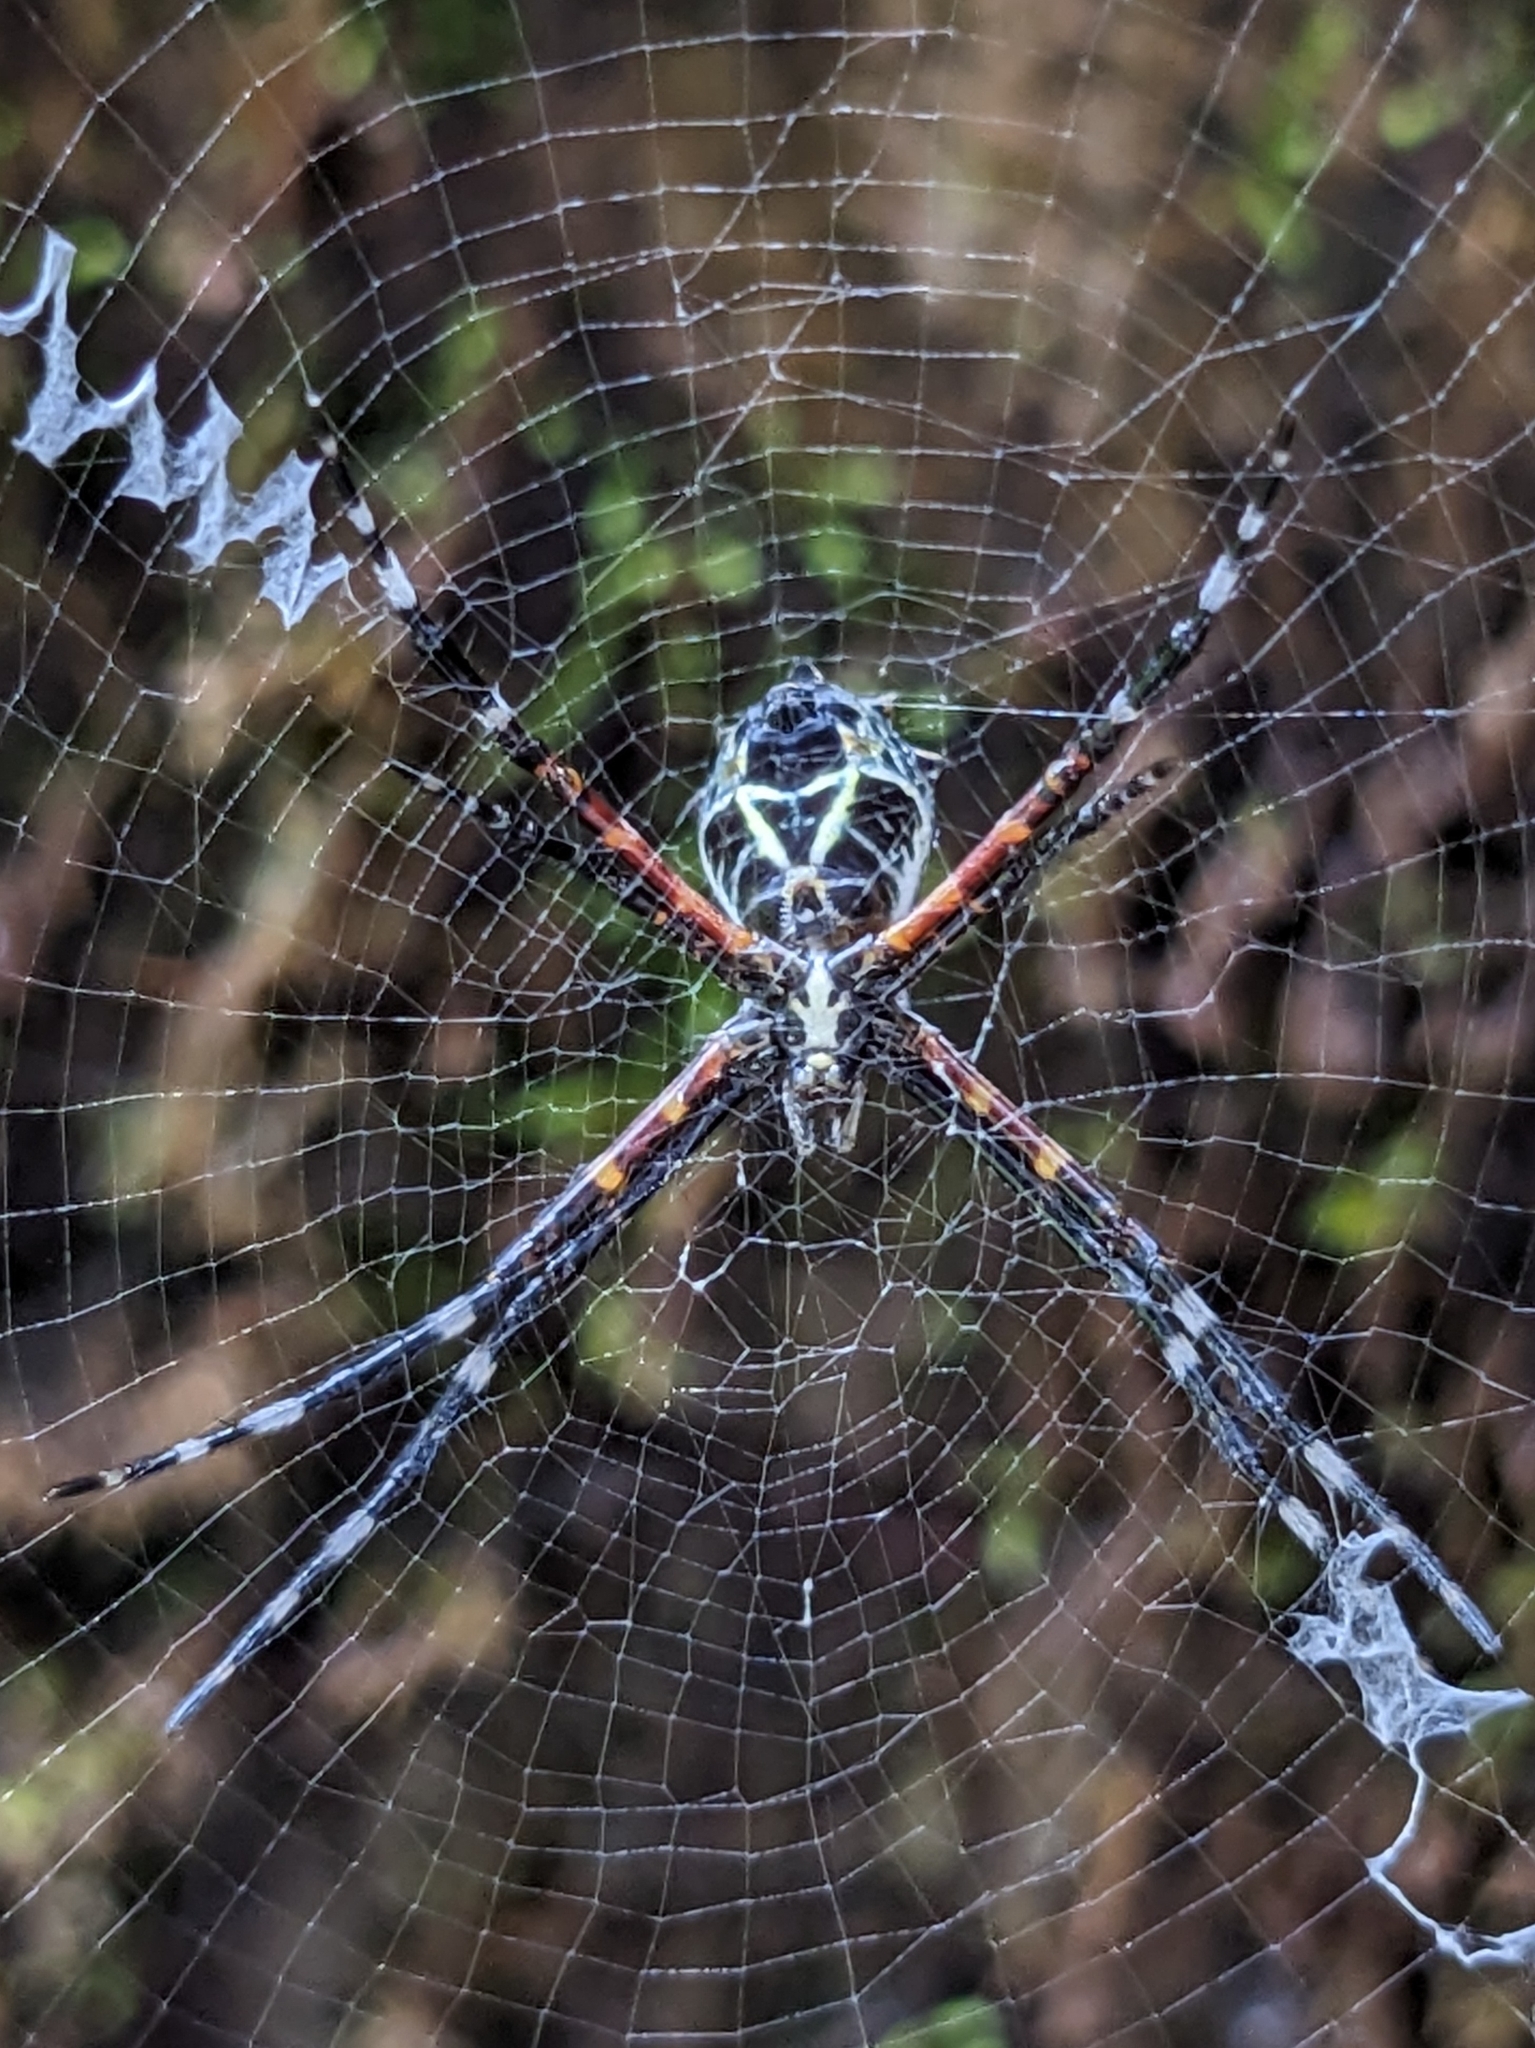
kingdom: Animalia
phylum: Arthropoda
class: Arachnida
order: Araneae
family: Araneidae
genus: Argiope
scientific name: Argiope submaronica
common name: Orb weavers
